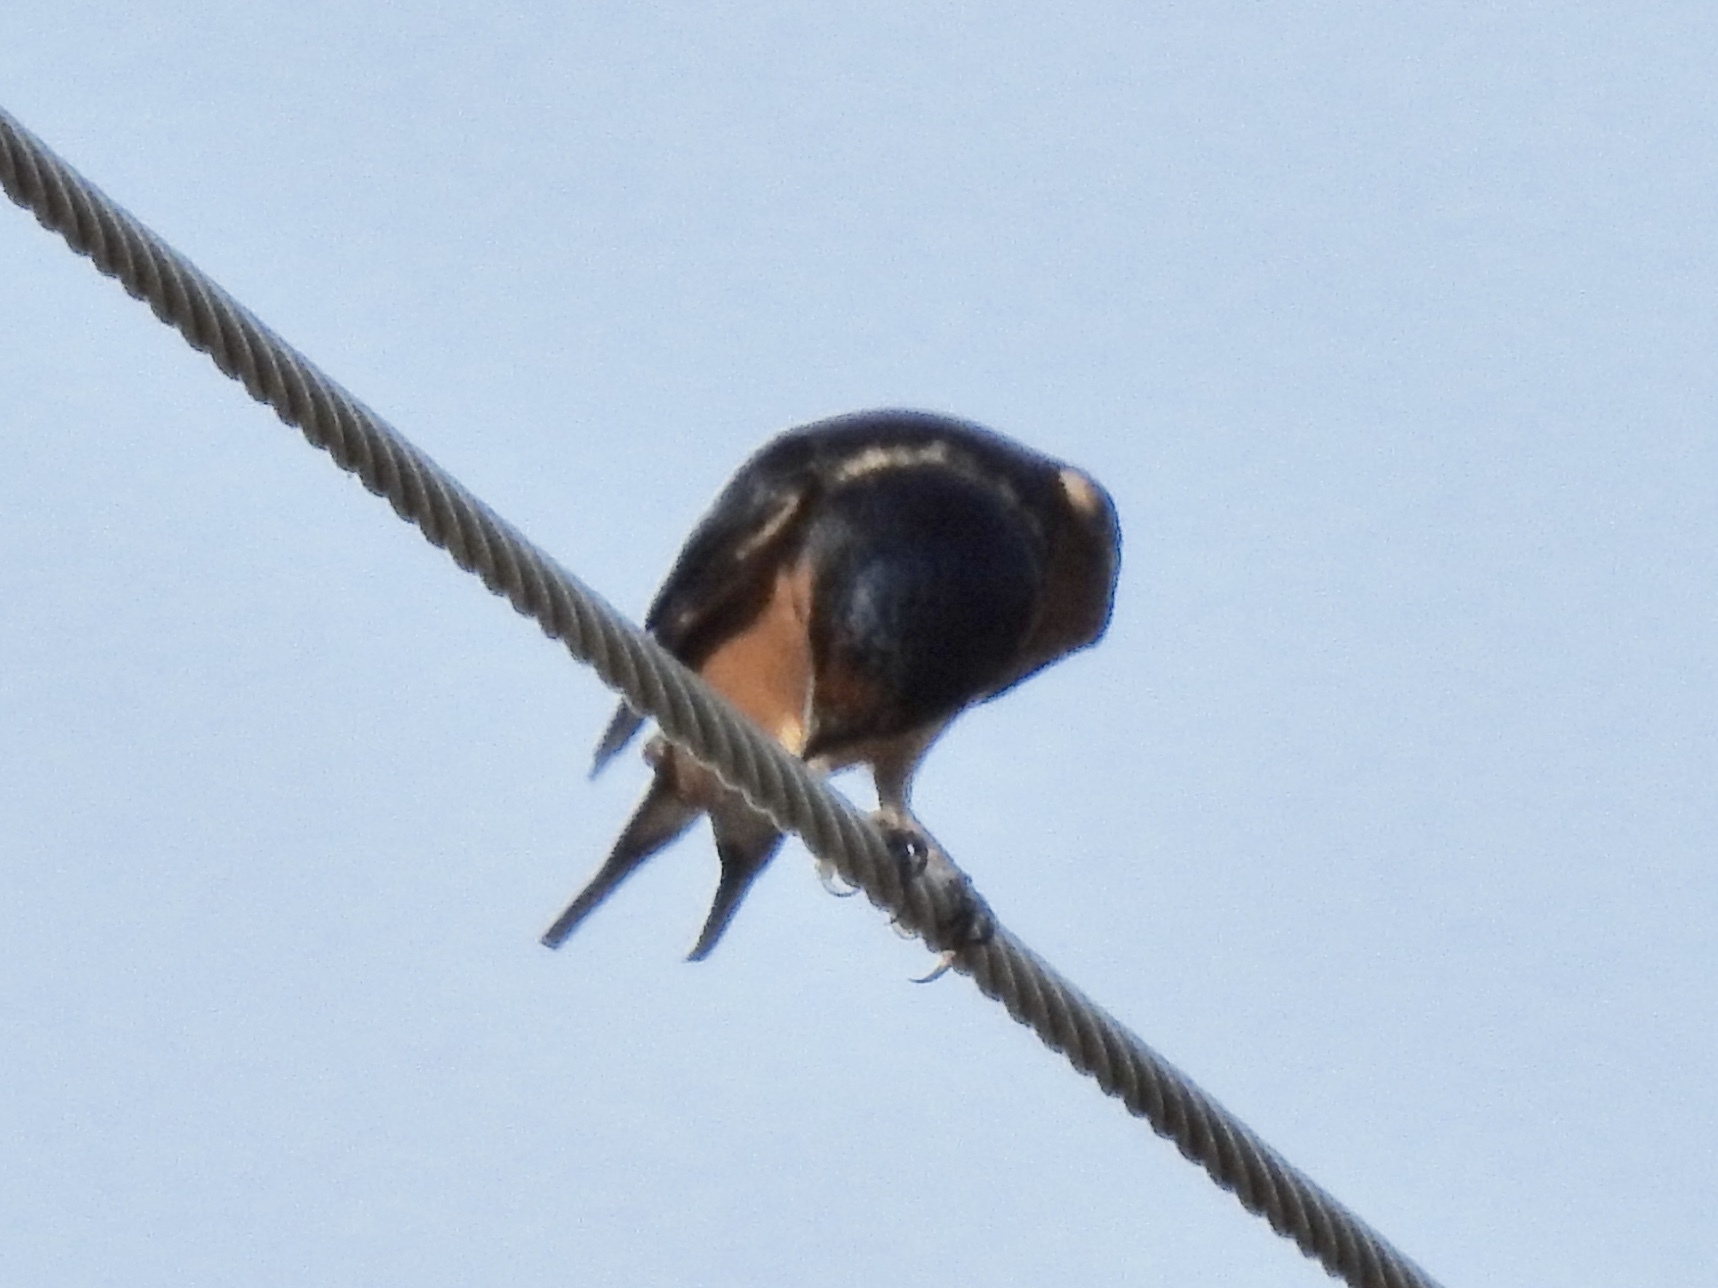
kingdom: Animalia
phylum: Chordata
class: Aves
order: Passeriformes
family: Hirundinidae
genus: Hirundo
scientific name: Hirundo rustica
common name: Barn swallow
